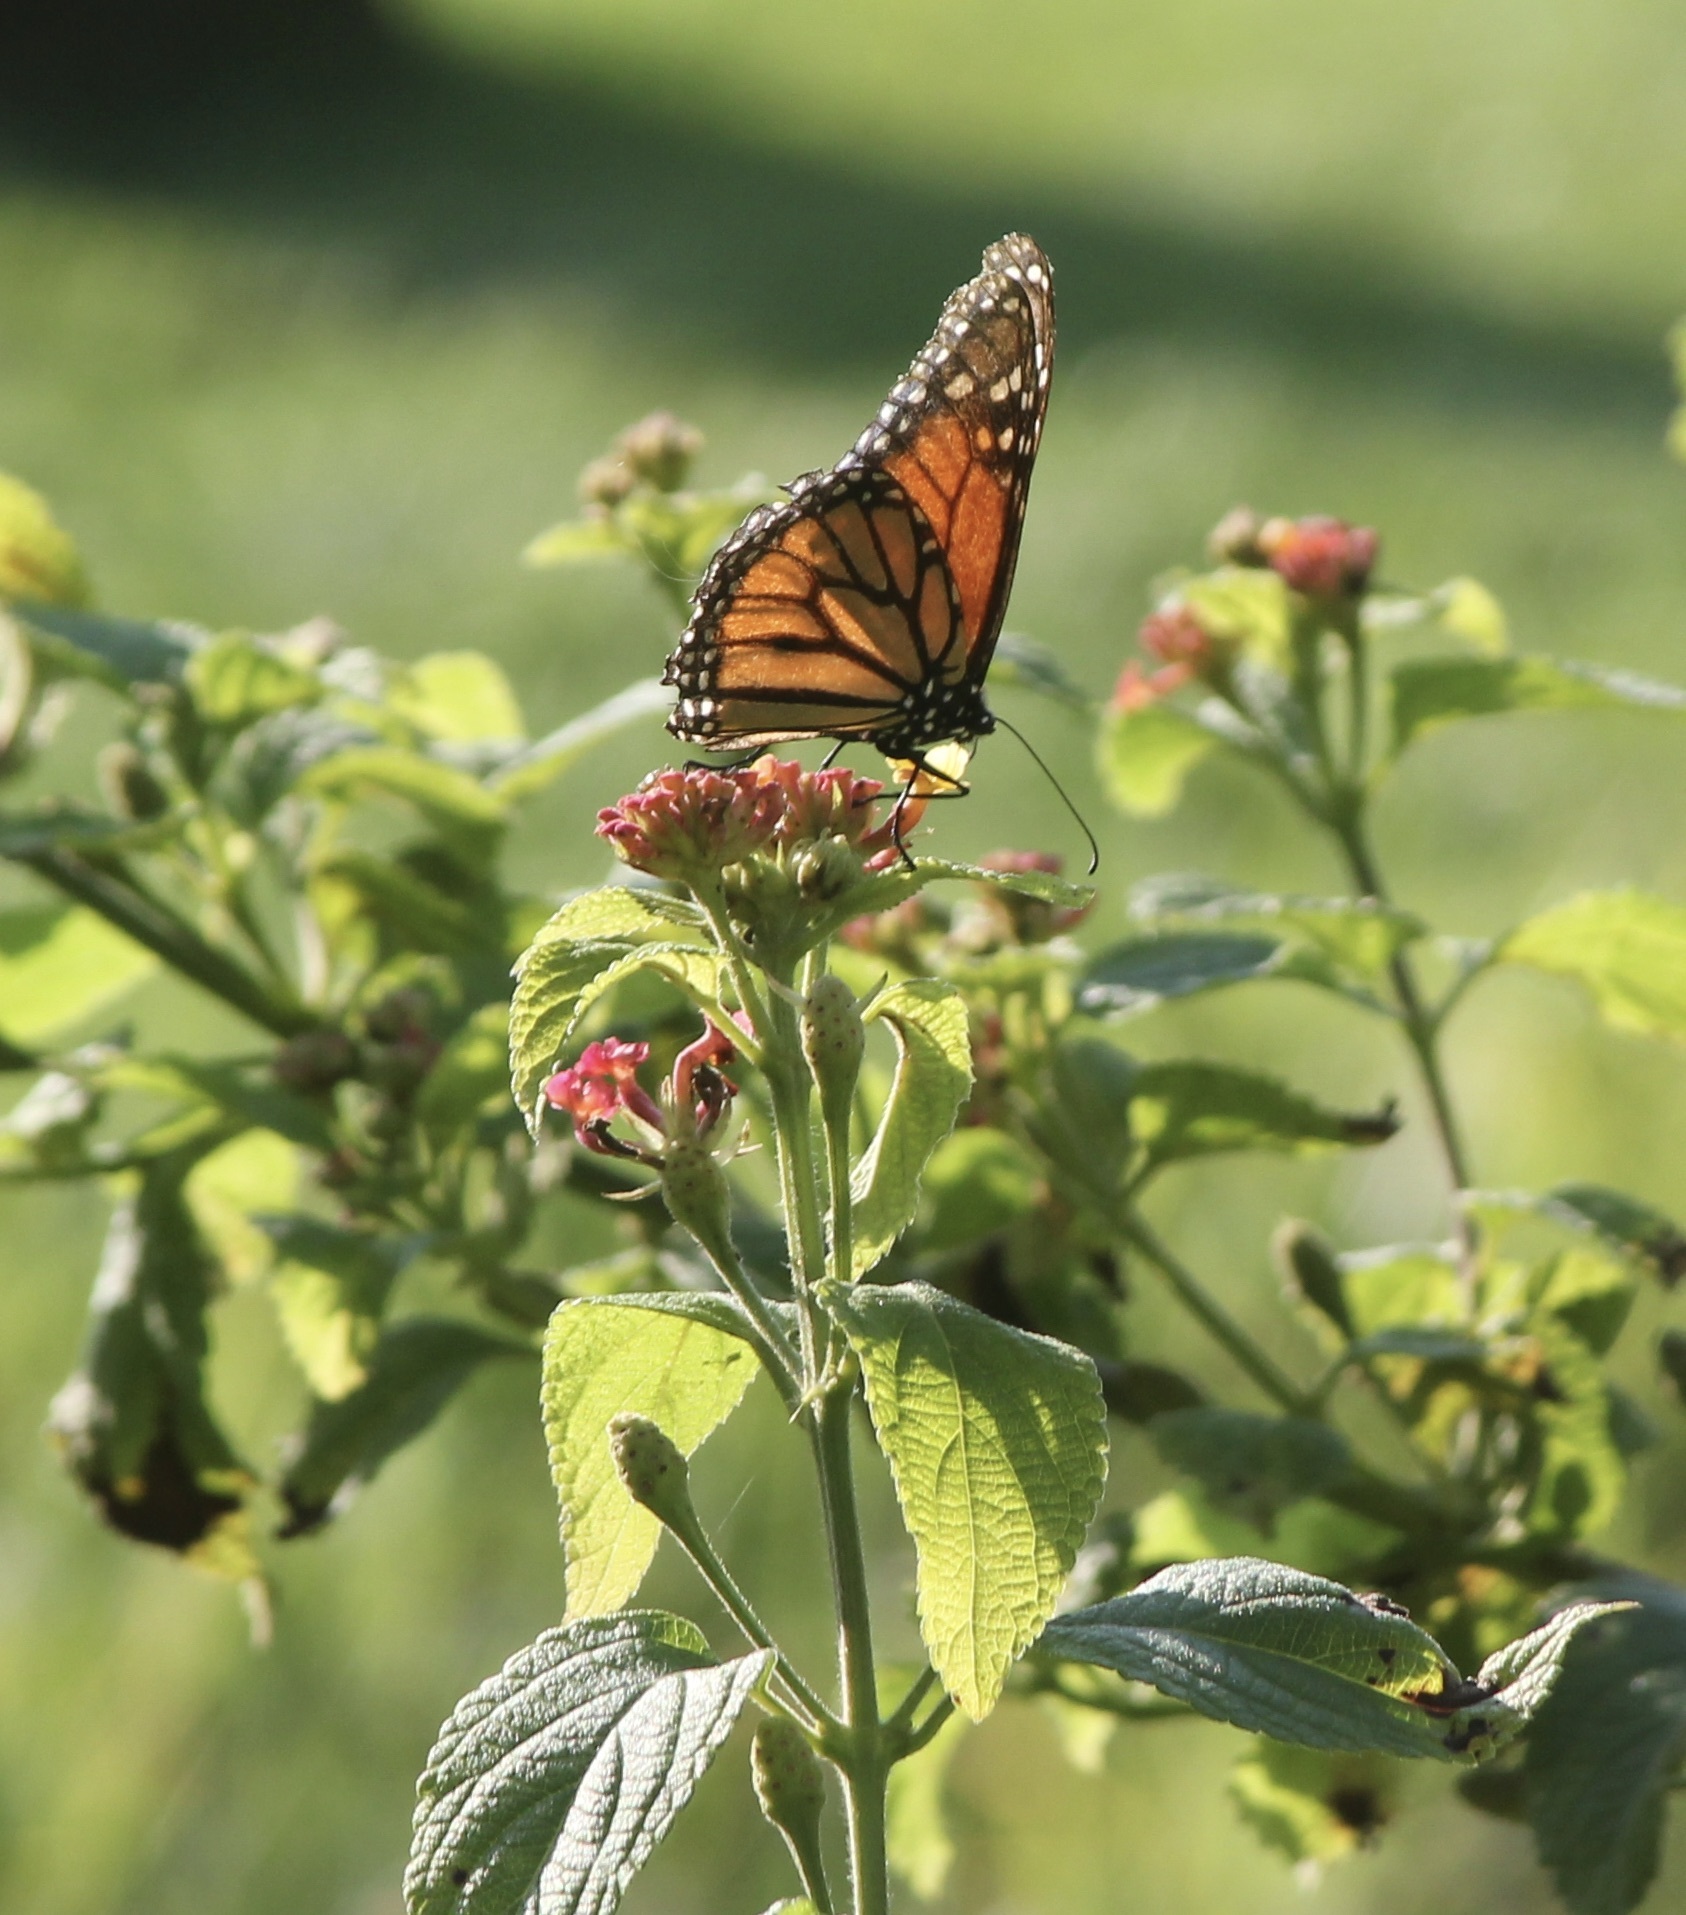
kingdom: Animalia
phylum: Arthropoda
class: Insecta
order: Lepidoptera
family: Nymphalidae
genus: Danaus
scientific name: Danaus plexippus
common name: Monarch
